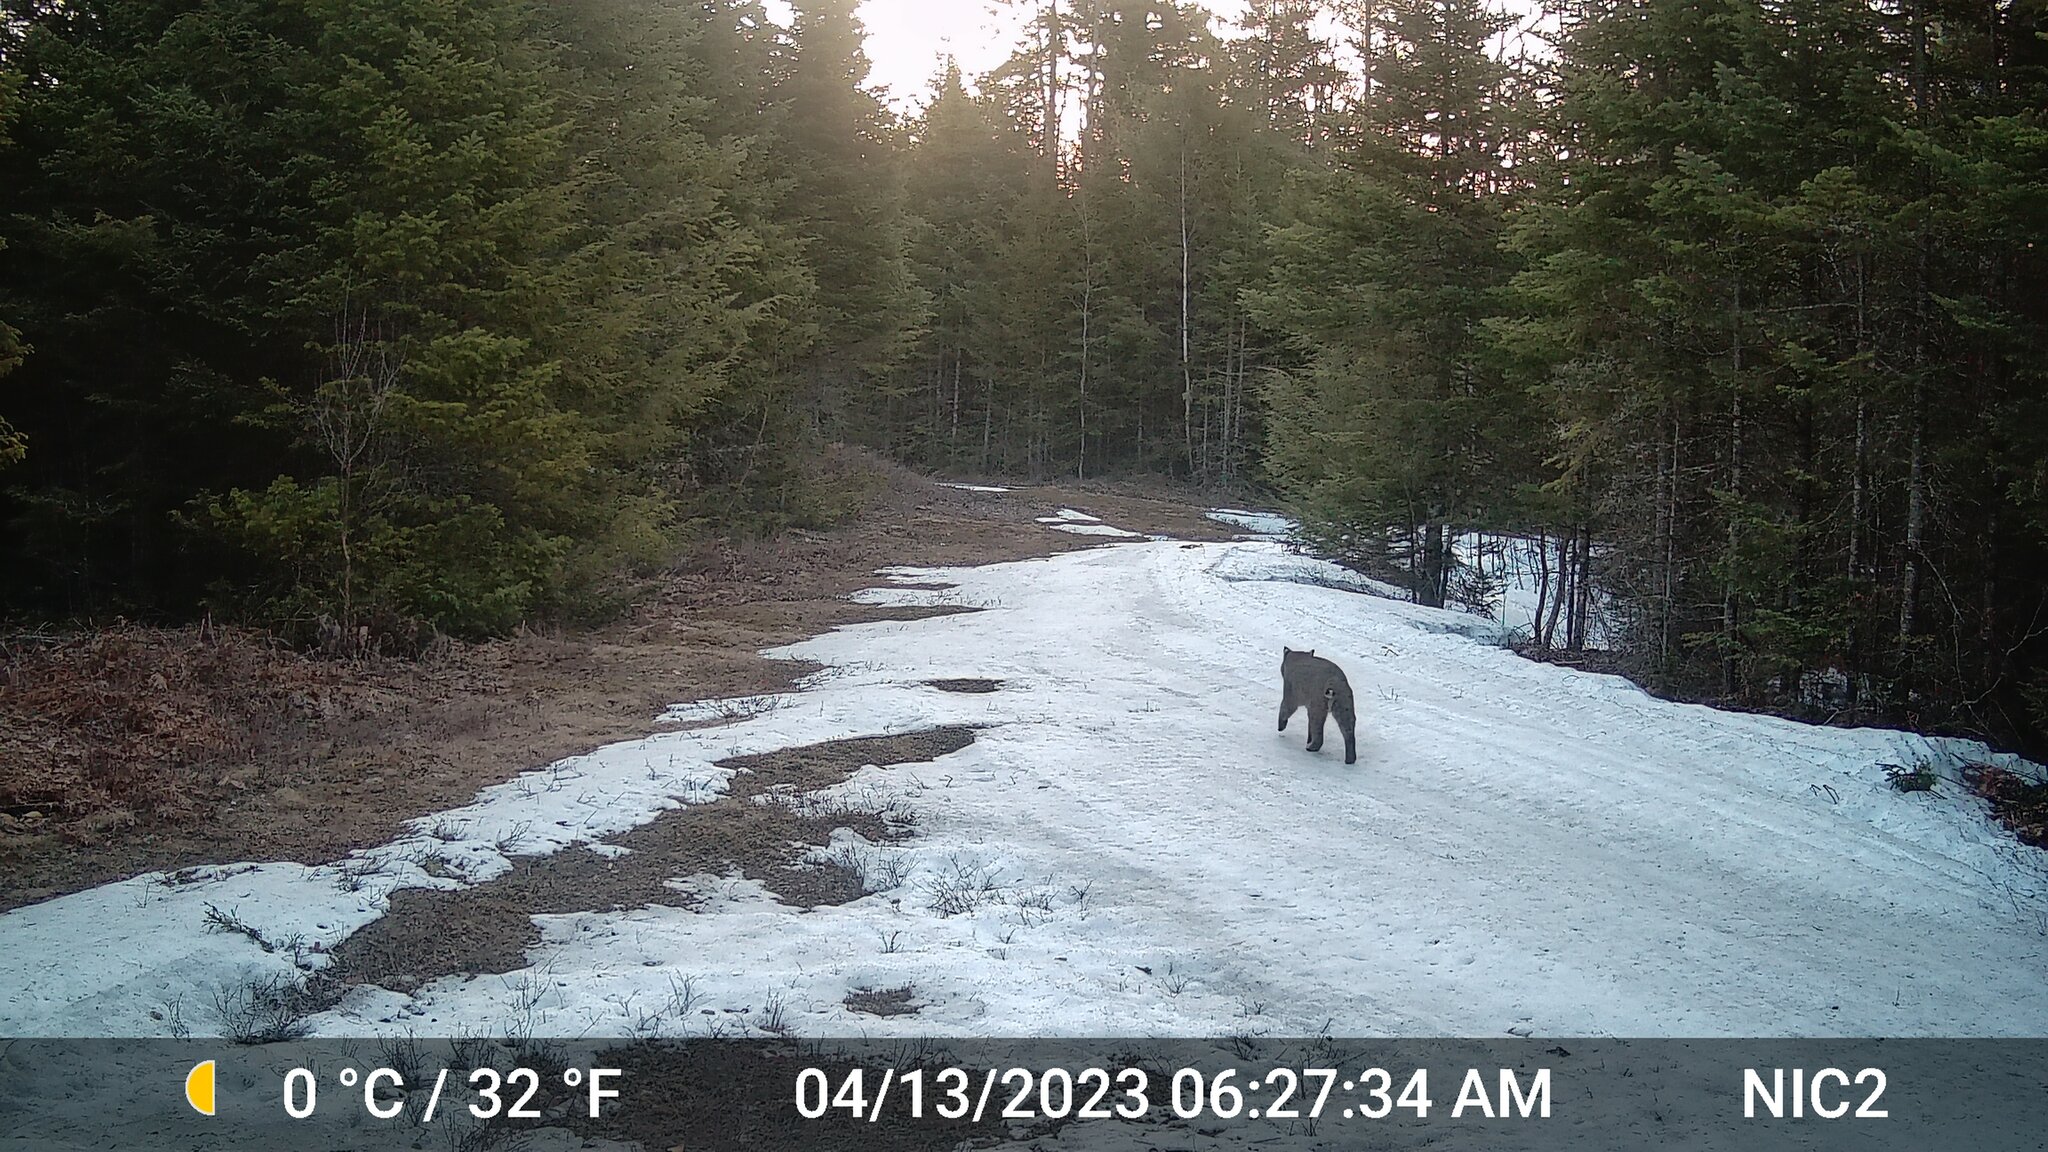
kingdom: Animalia
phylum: Chordata
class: Mammalia
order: Carnivora
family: Felidae
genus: Lynx
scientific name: Lynx rufus
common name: Bobcat
